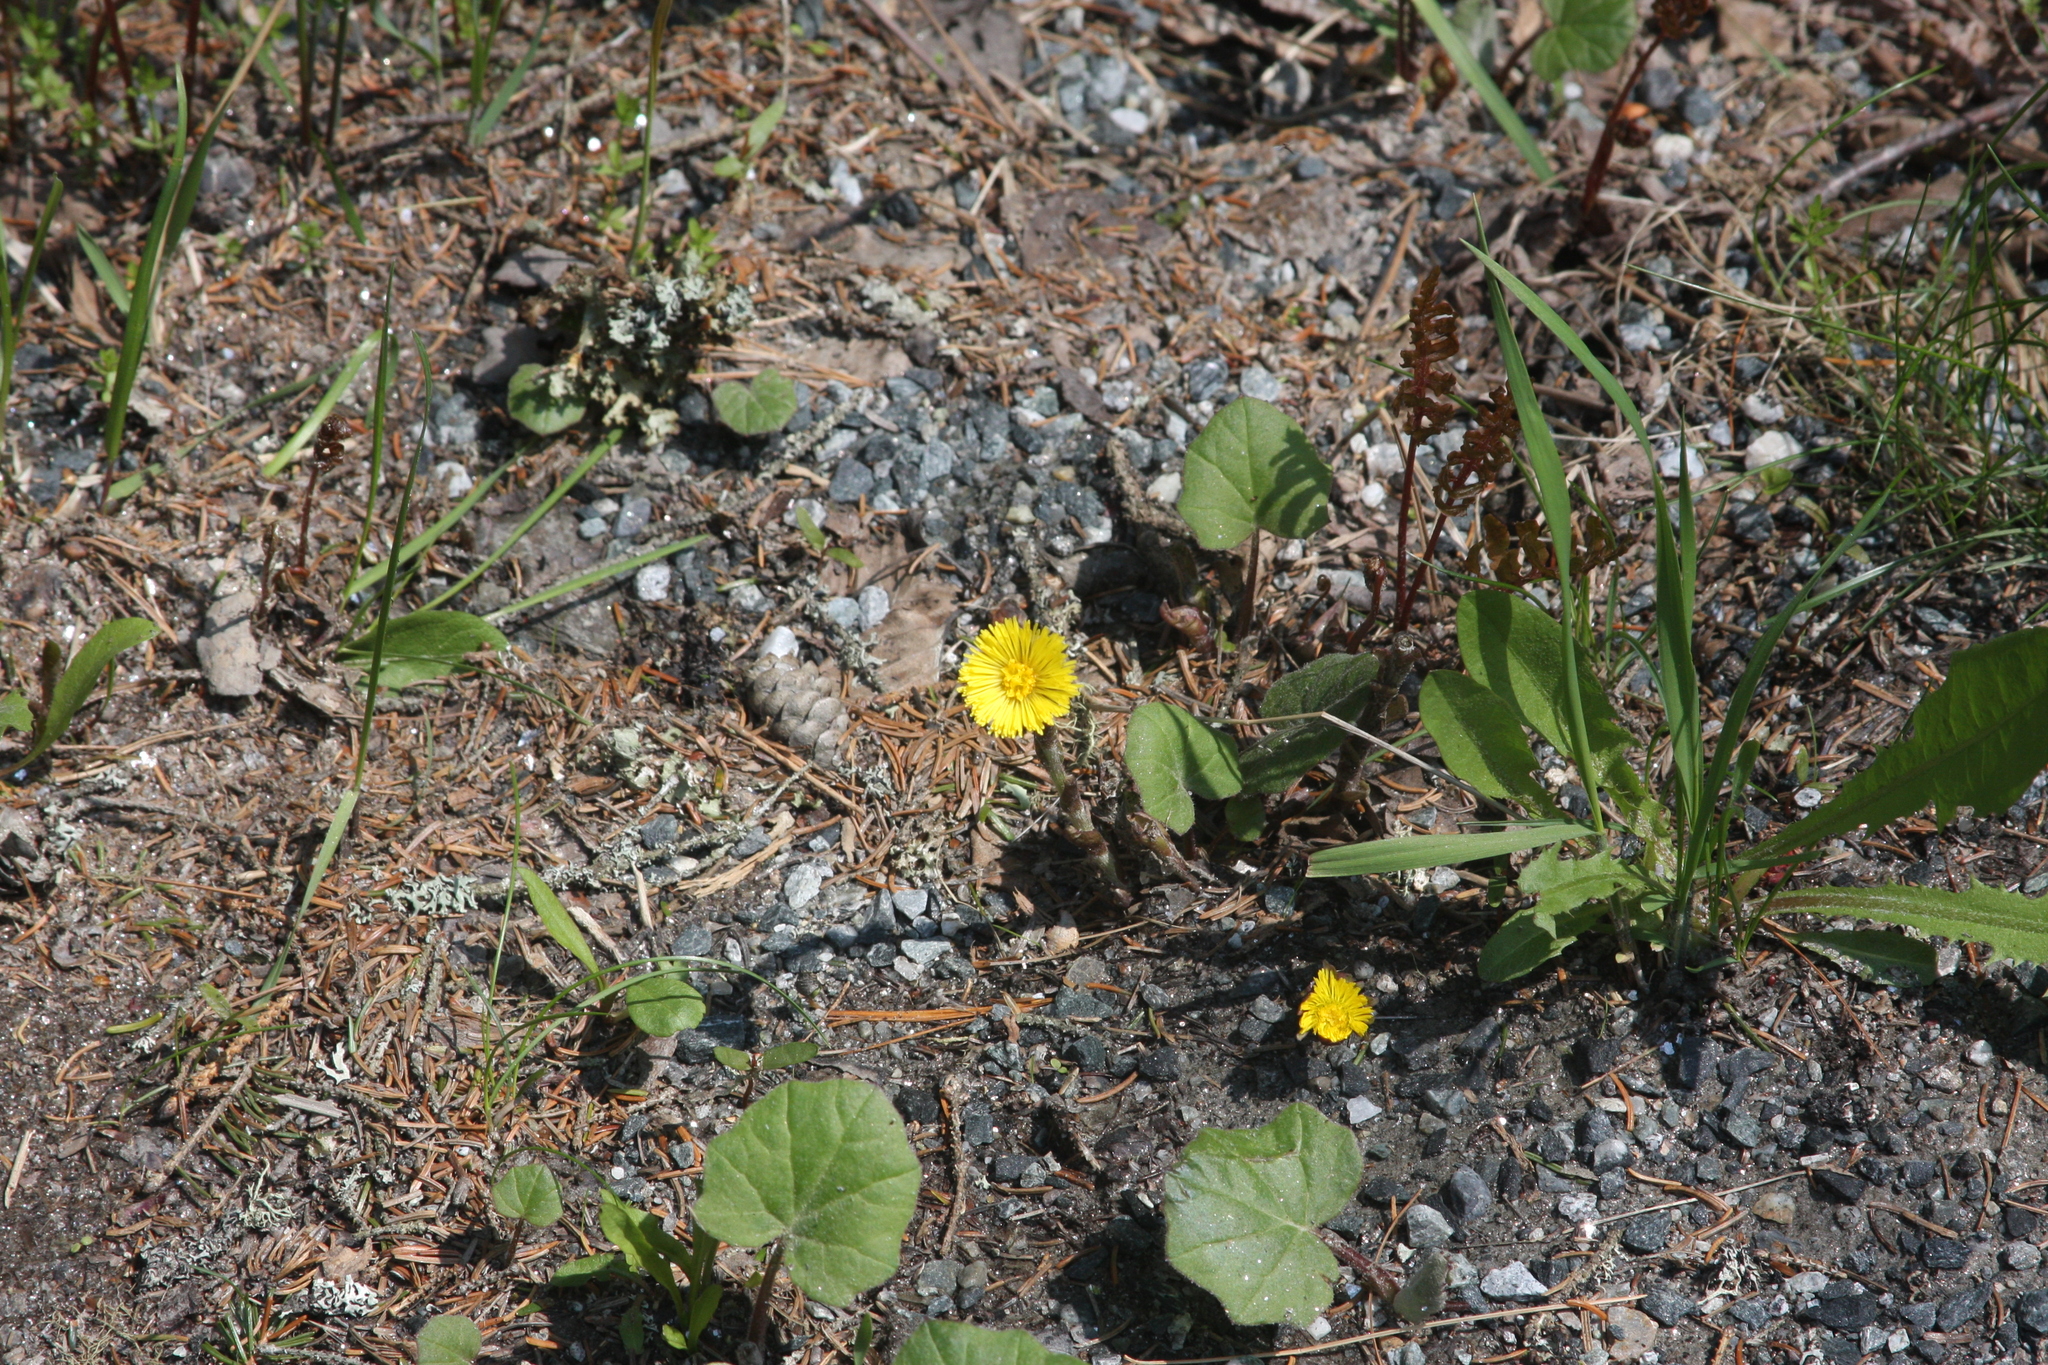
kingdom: Plantae
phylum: Tracheophyta
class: Magnoliopsida
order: Asterales
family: Asteraceae
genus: Tussilago
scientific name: Tussilago farfara
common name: Coltsfoot
